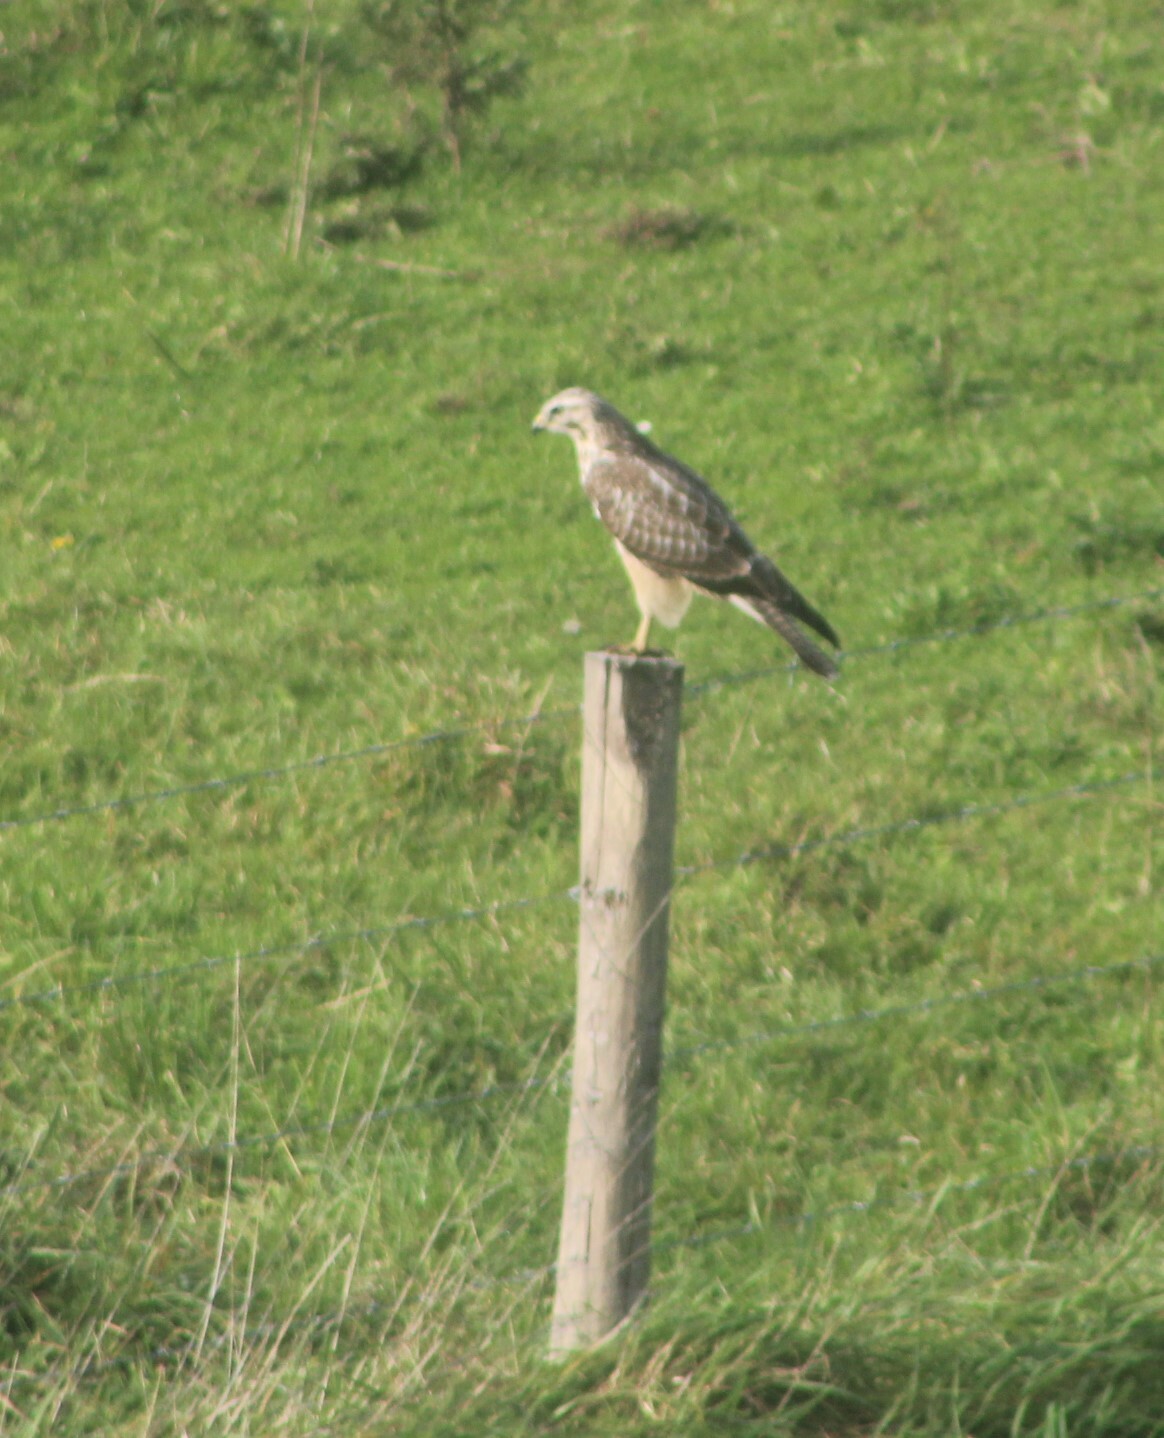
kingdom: Animalia
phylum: Chordata
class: Aves
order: Accipitriformes
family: Accipitridae
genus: Buteo
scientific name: Buteo buteo
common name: Common buzzard
